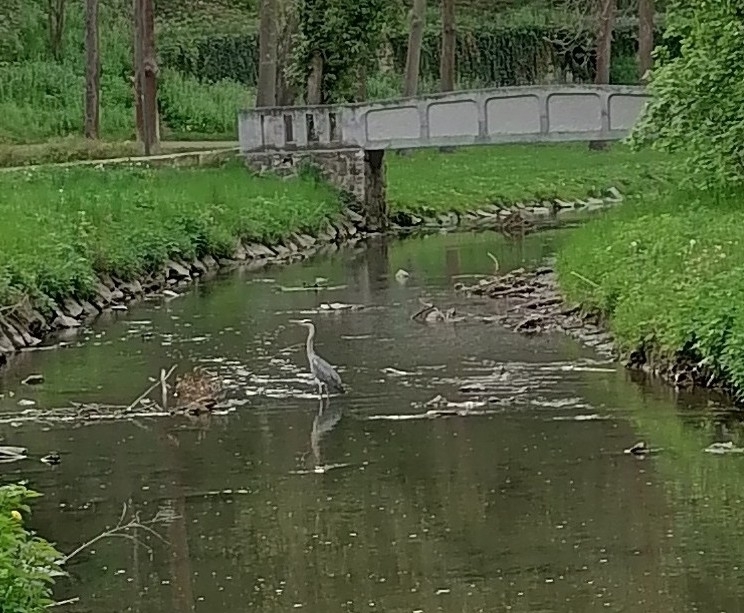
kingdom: Animalia
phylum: Chordata
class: Aves
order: Pelecaniformes
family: Ardeidae
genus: Ardea
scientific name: Ardea cinerea
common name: Grey heron
